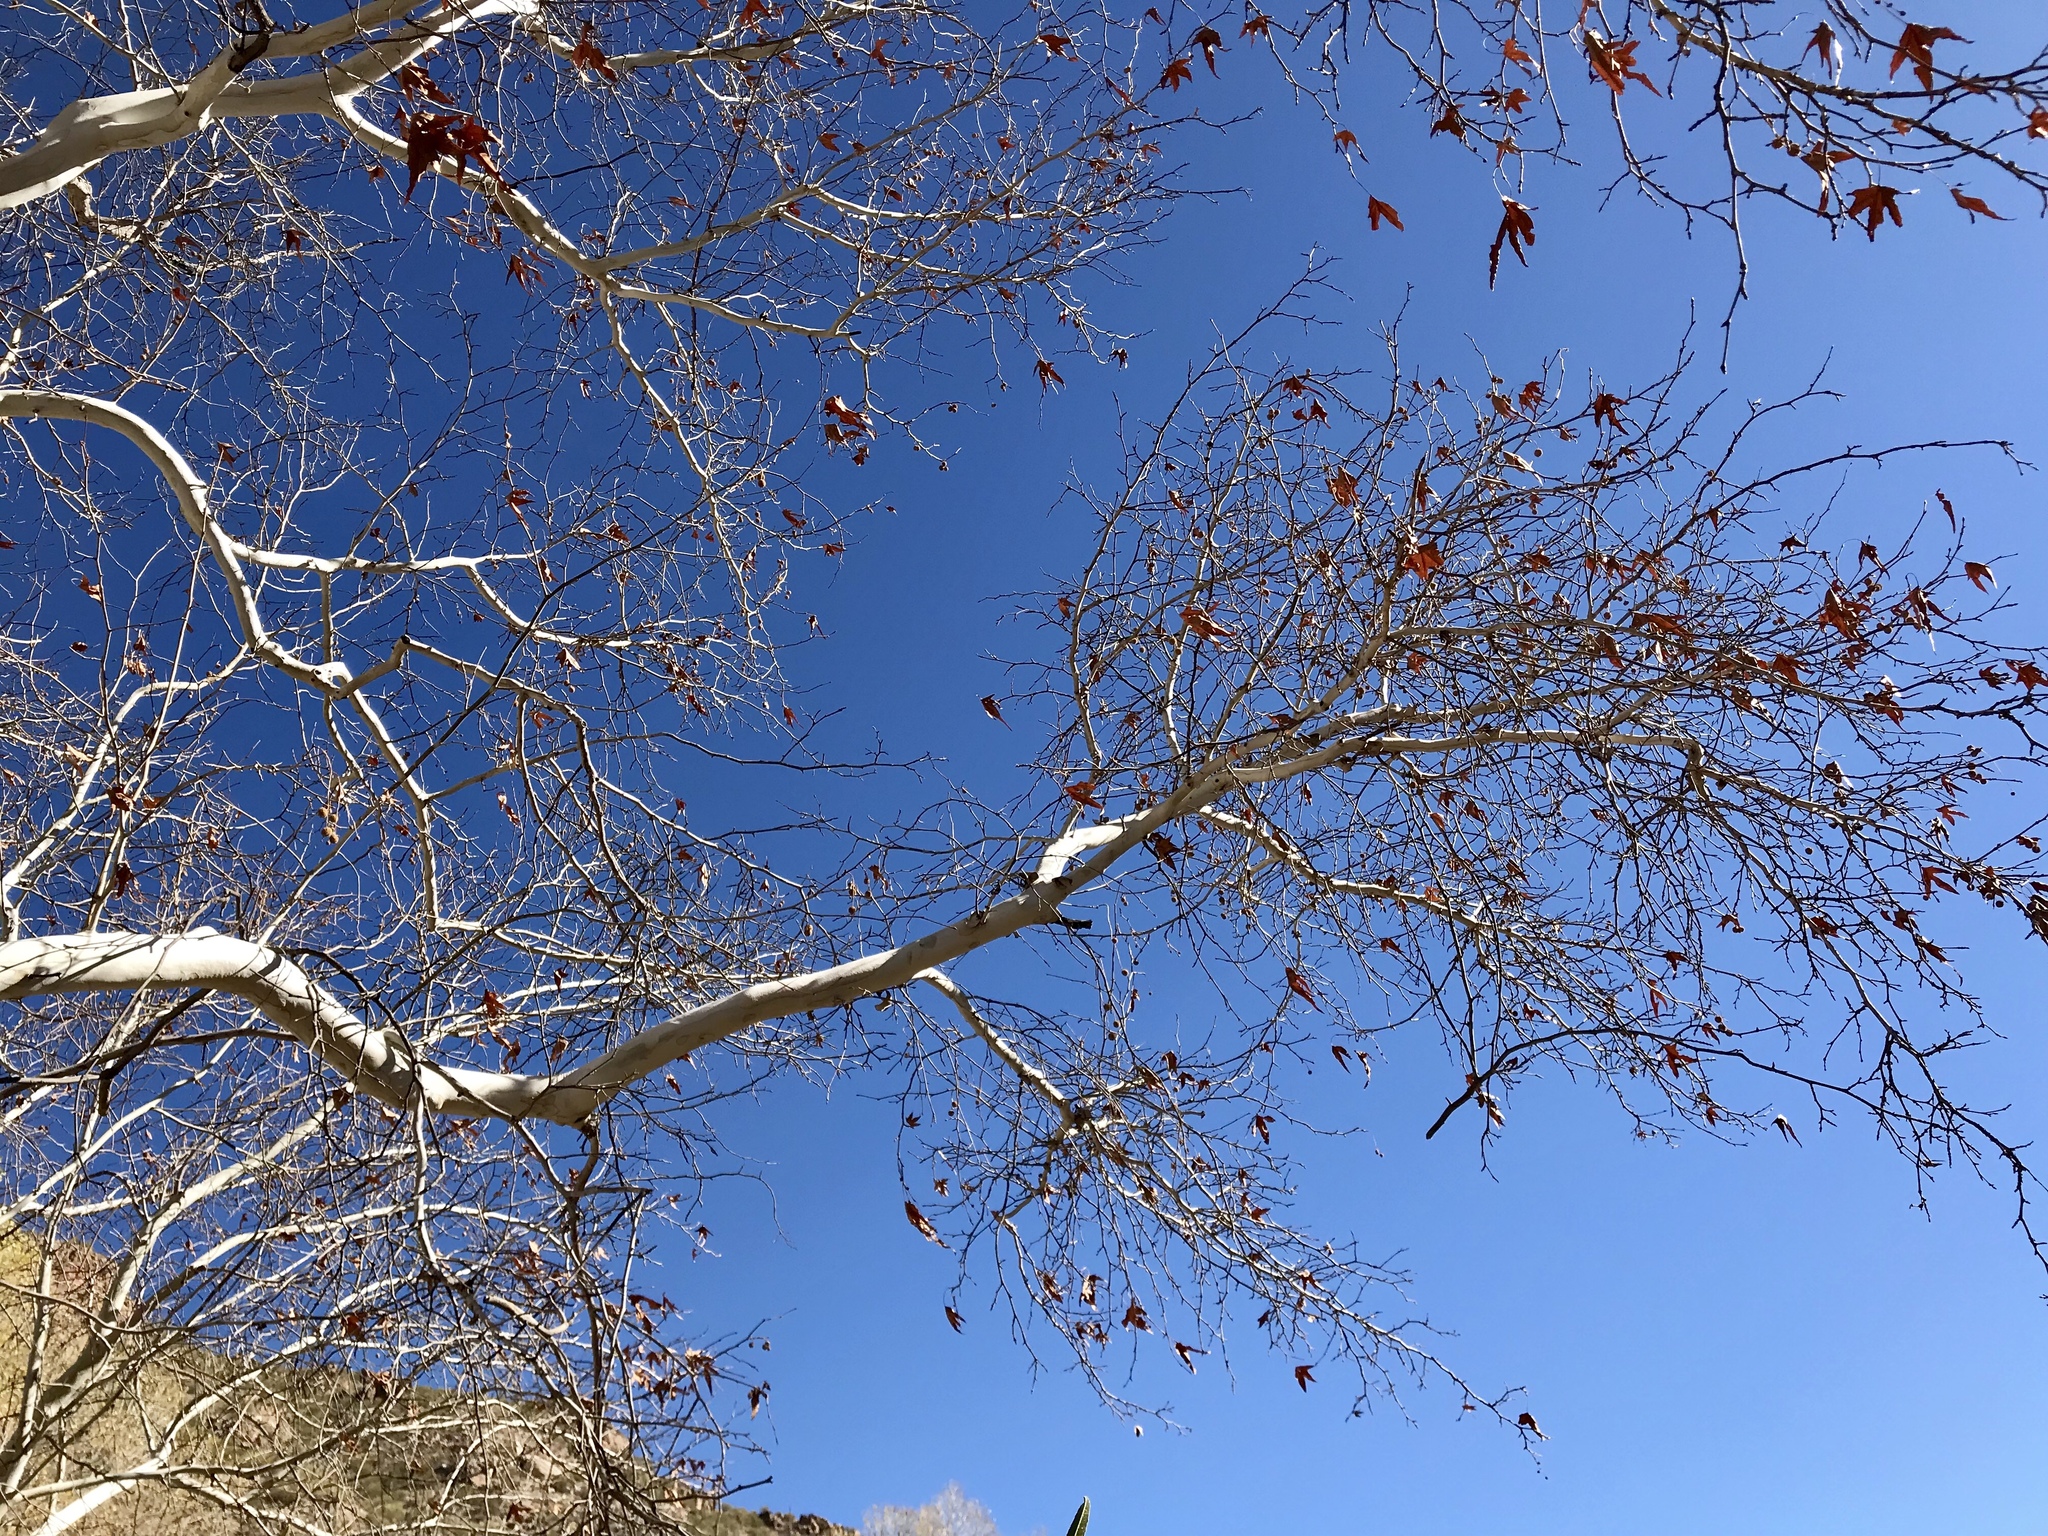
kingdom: Plantae
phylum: Tracheophyta
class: Magnoliopsida
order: Proteales
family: Platanaceae
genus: Platanus
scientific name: Platanus wrightii
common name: Arizona sycamore
